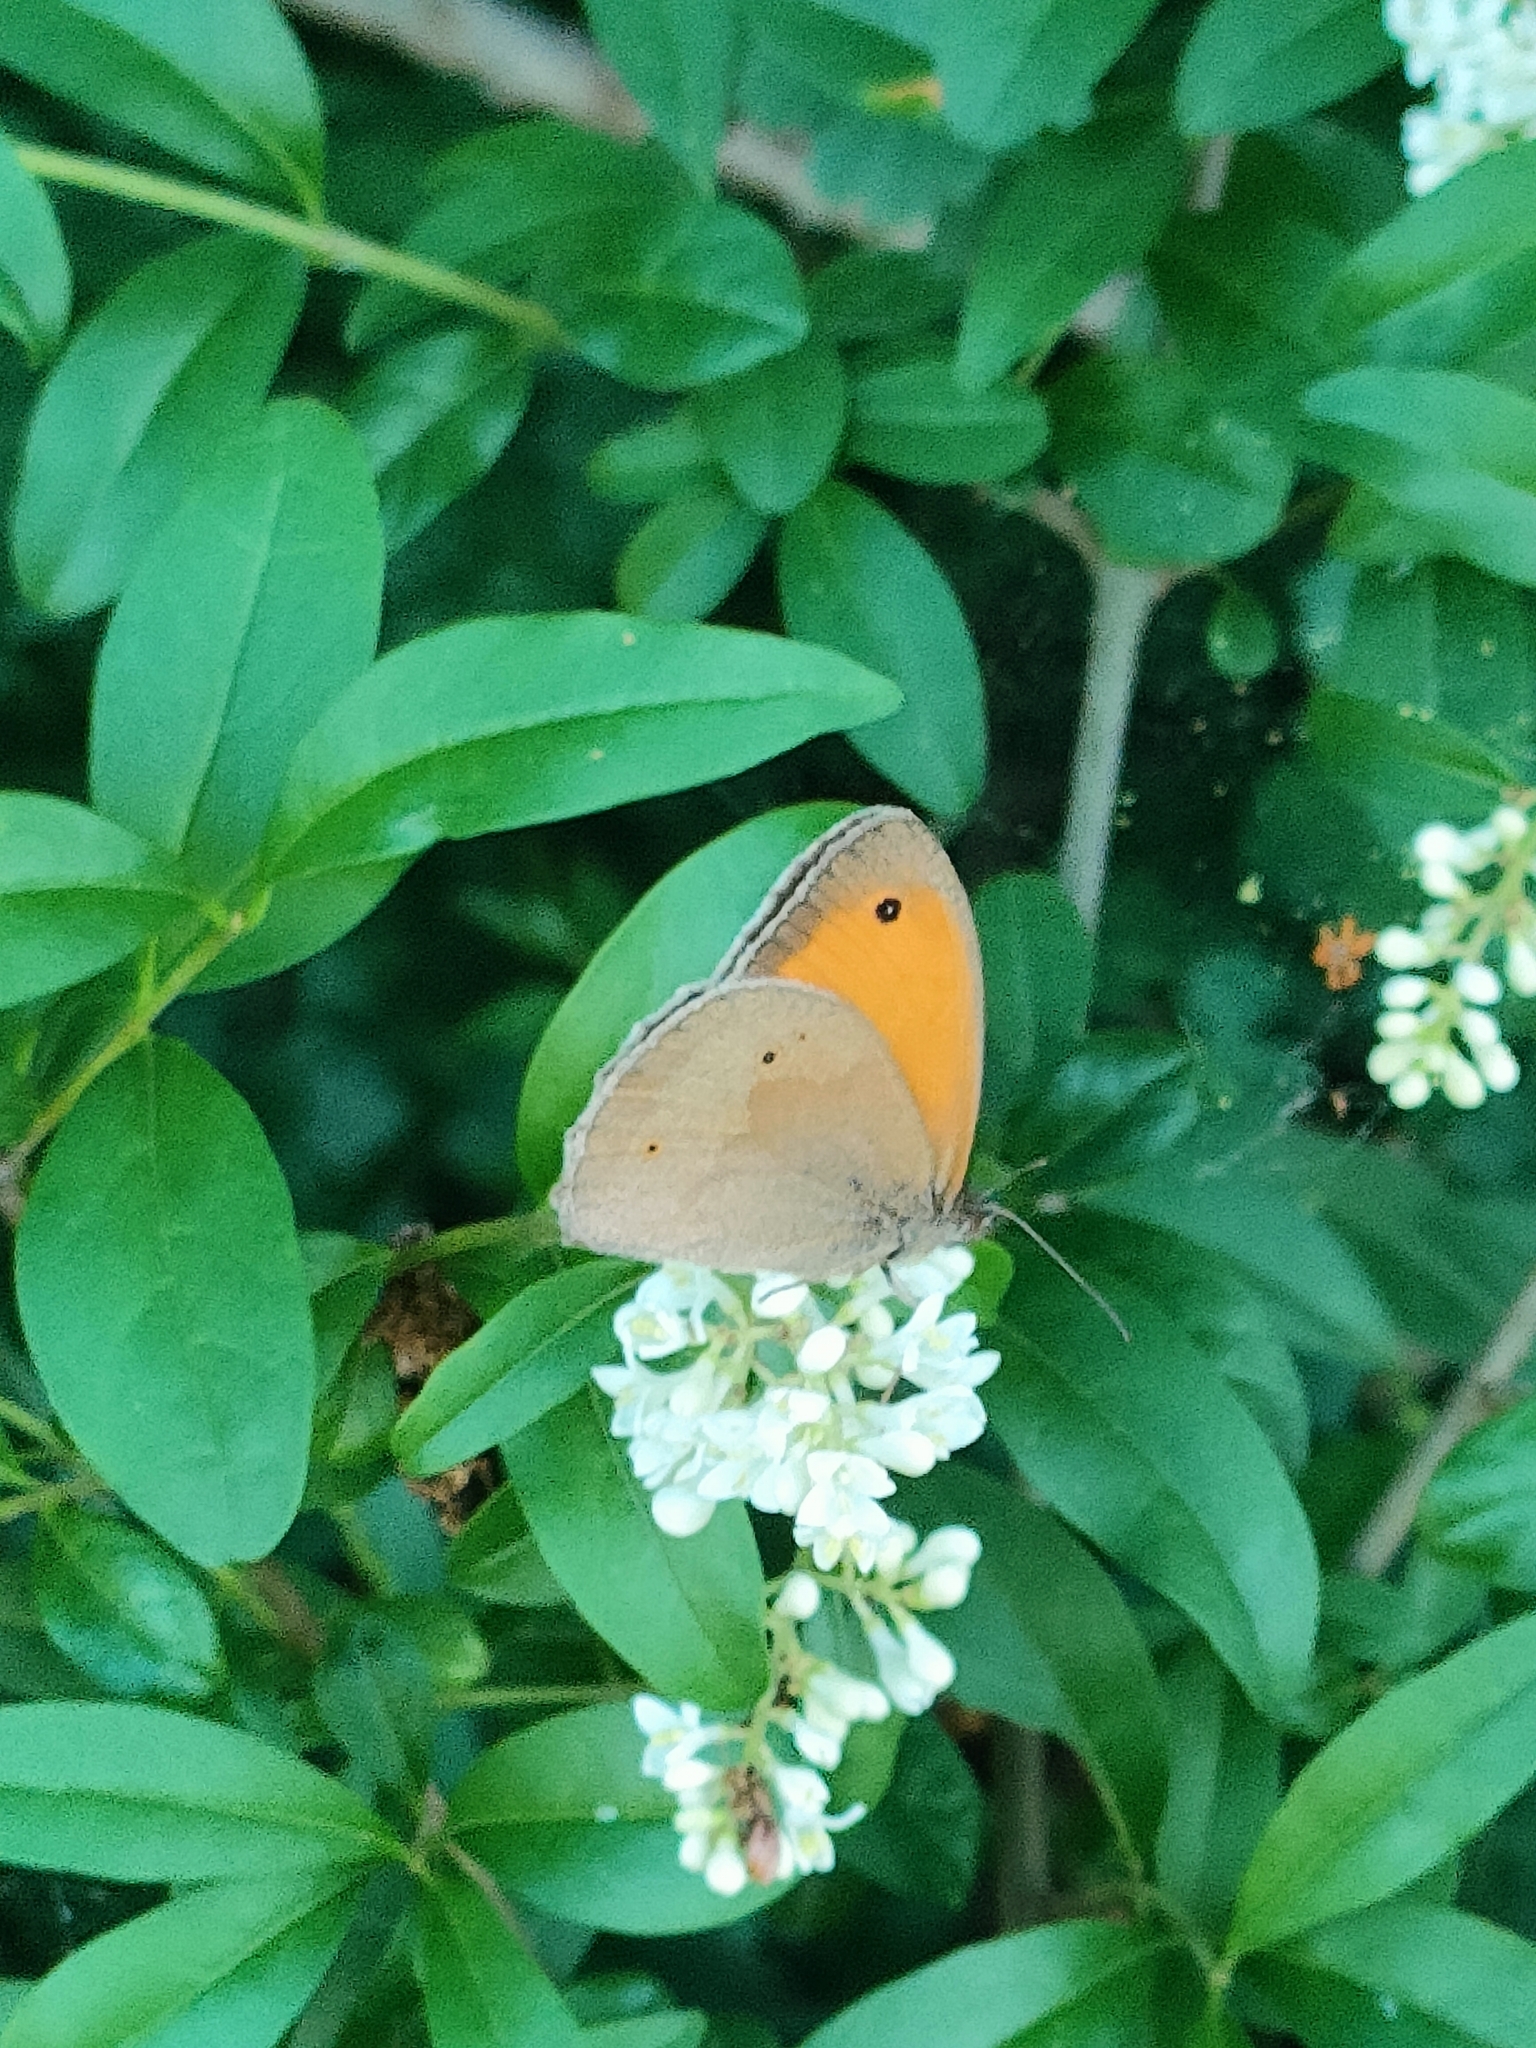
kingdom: Animalia
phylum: Arthropoda
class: Insecta
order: Lepidoptera
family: Nymphalidae
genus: Maniola
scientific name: Maniola jurtina
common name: Meadow brown
